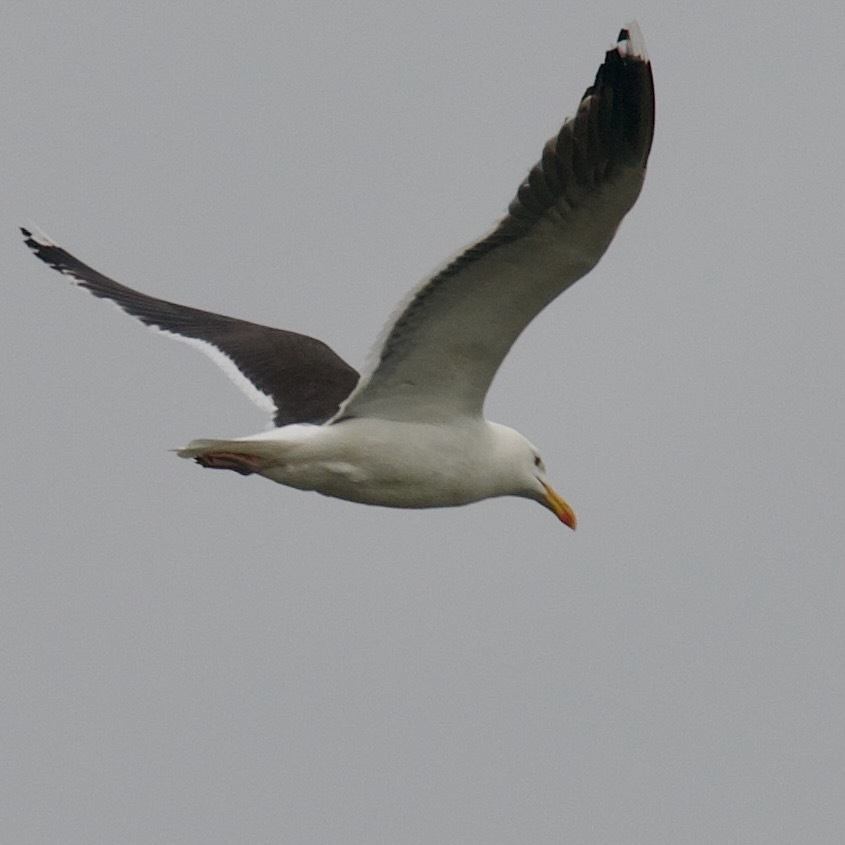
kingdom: Animalia
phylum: Chordata
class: Aves
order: Charadriiformes
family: Laridae
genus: Larus
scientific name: Larus marinus
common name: Great black-backed gull
